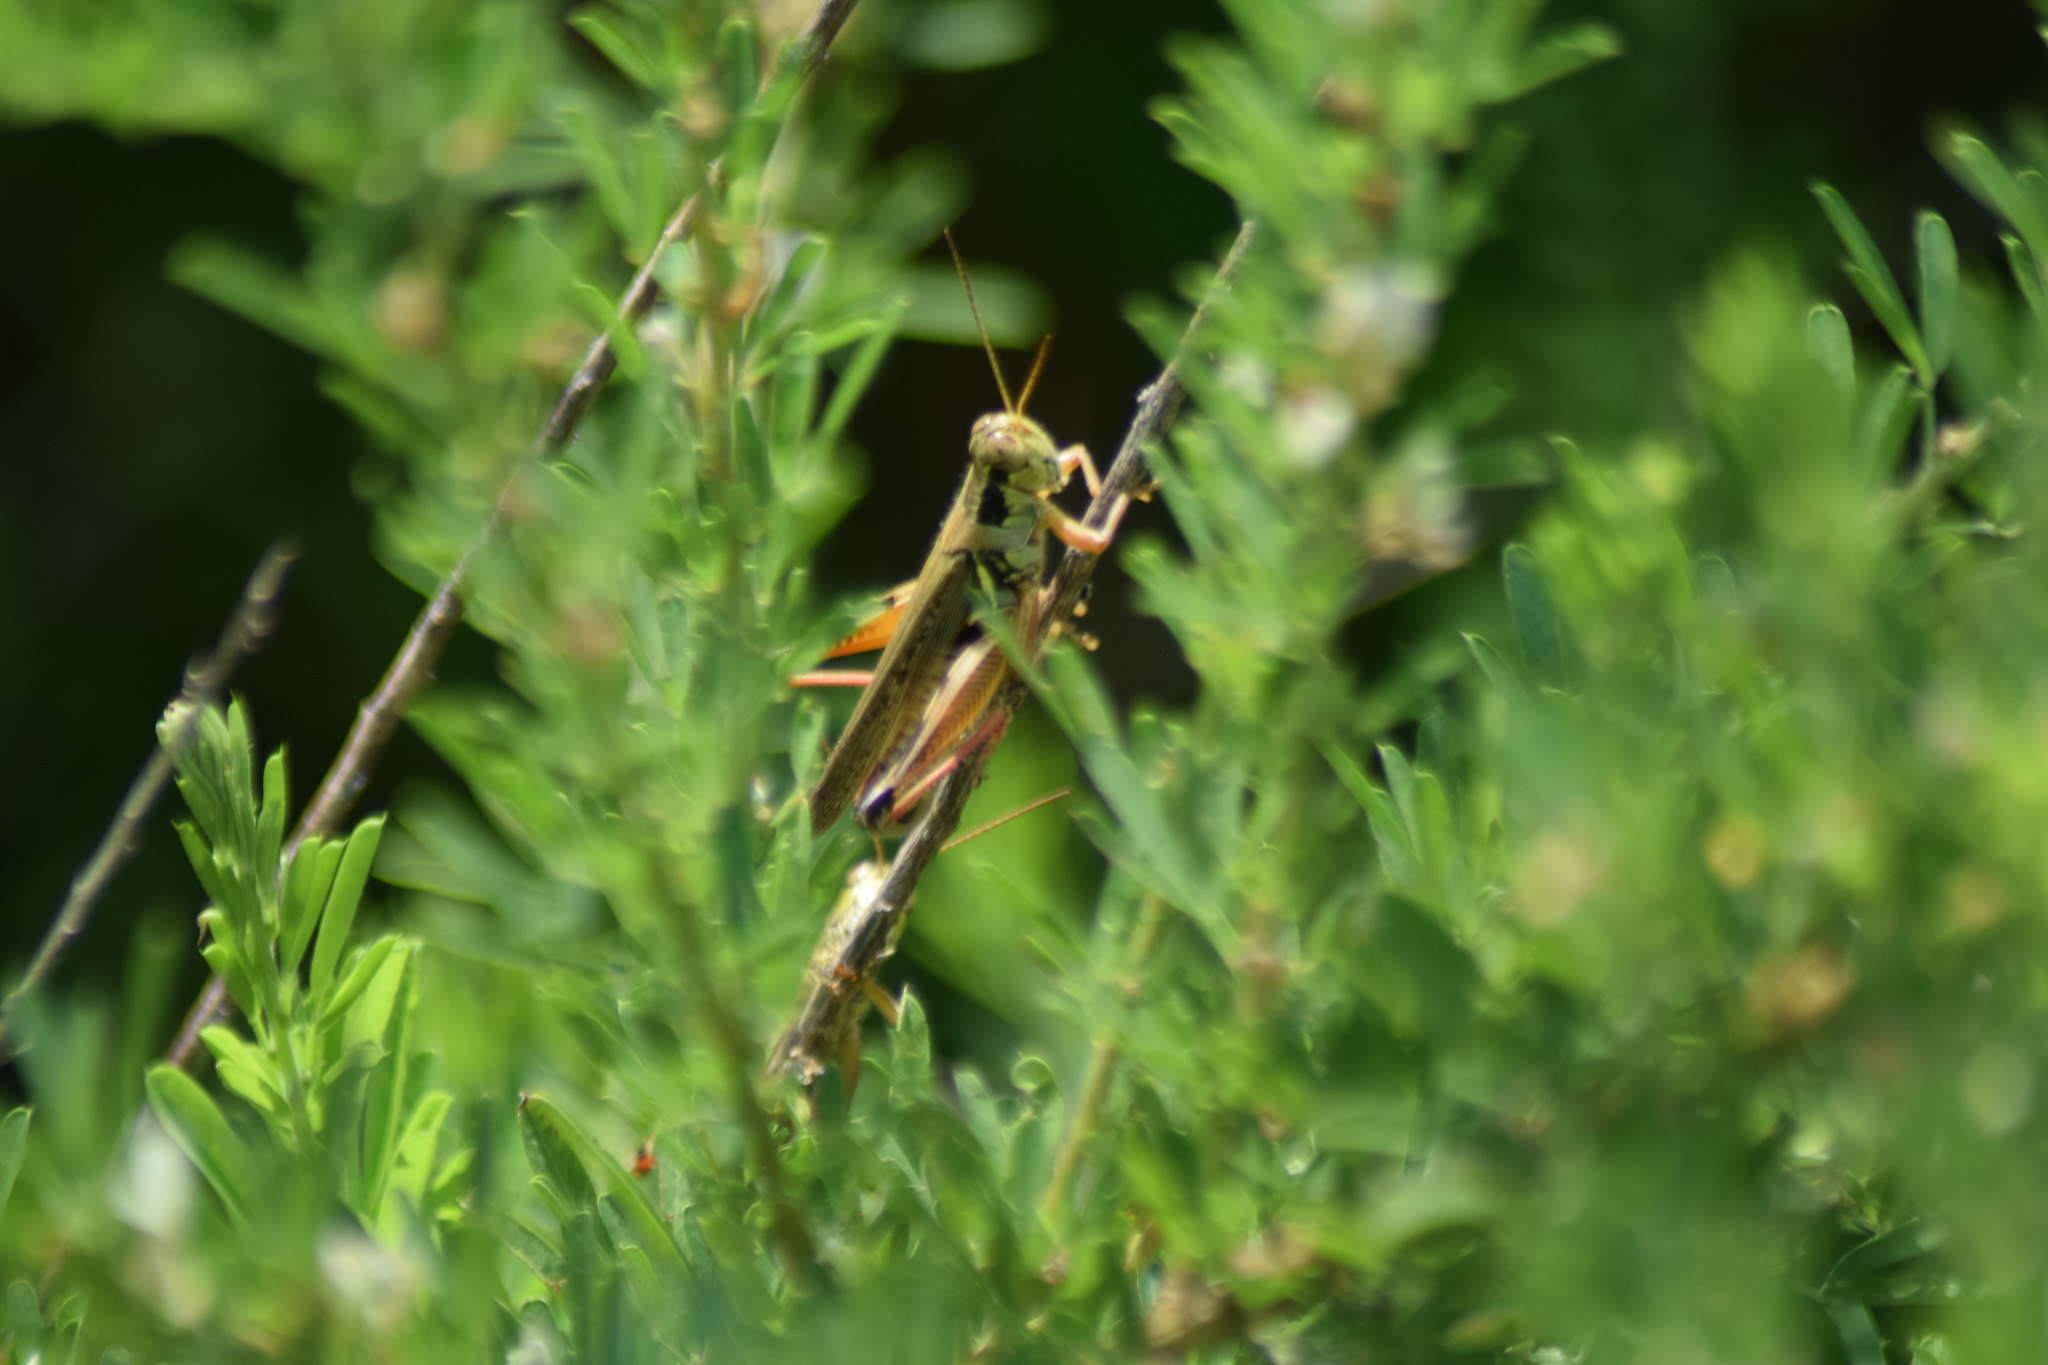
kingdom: Animalia
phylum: Arthropoda
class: Insecta
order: Orthoptera
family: Acrididae
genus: Melanoplus
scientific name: Melanoplus femurrubrum
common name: Red-legged grasshopper
